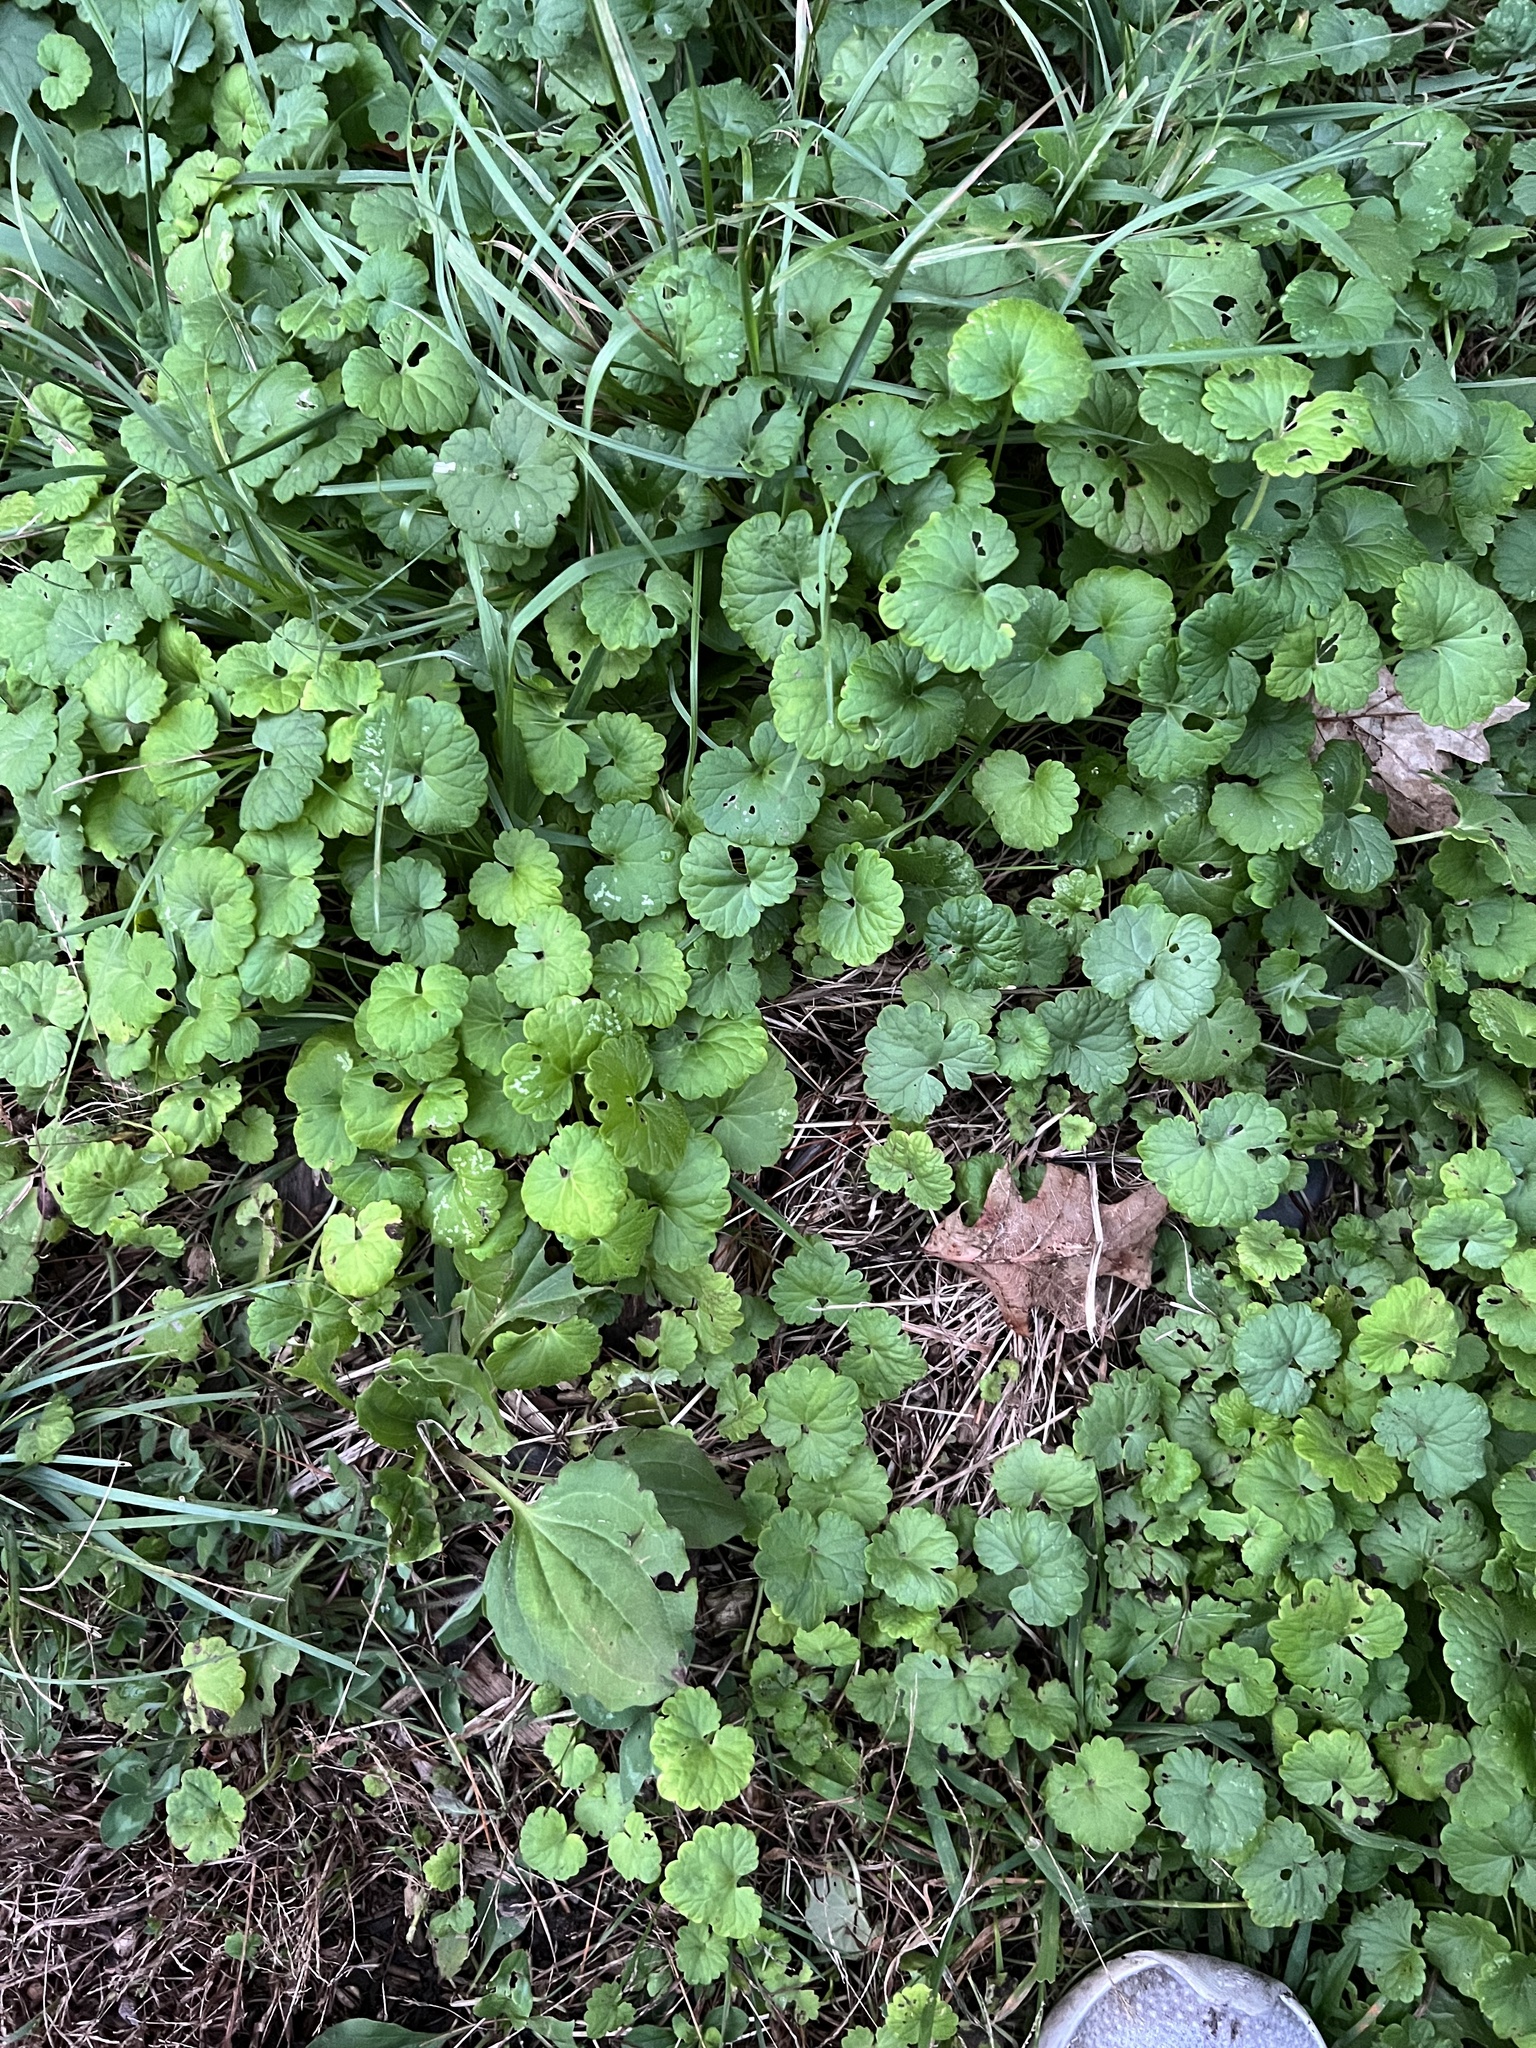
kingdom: Plantae
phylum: Tracheophyta
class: Magnoliopsida
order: Lamiales
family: Lamiaceae
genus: Glechoma
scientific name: Glechoma hederacea
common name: Ground ivy
